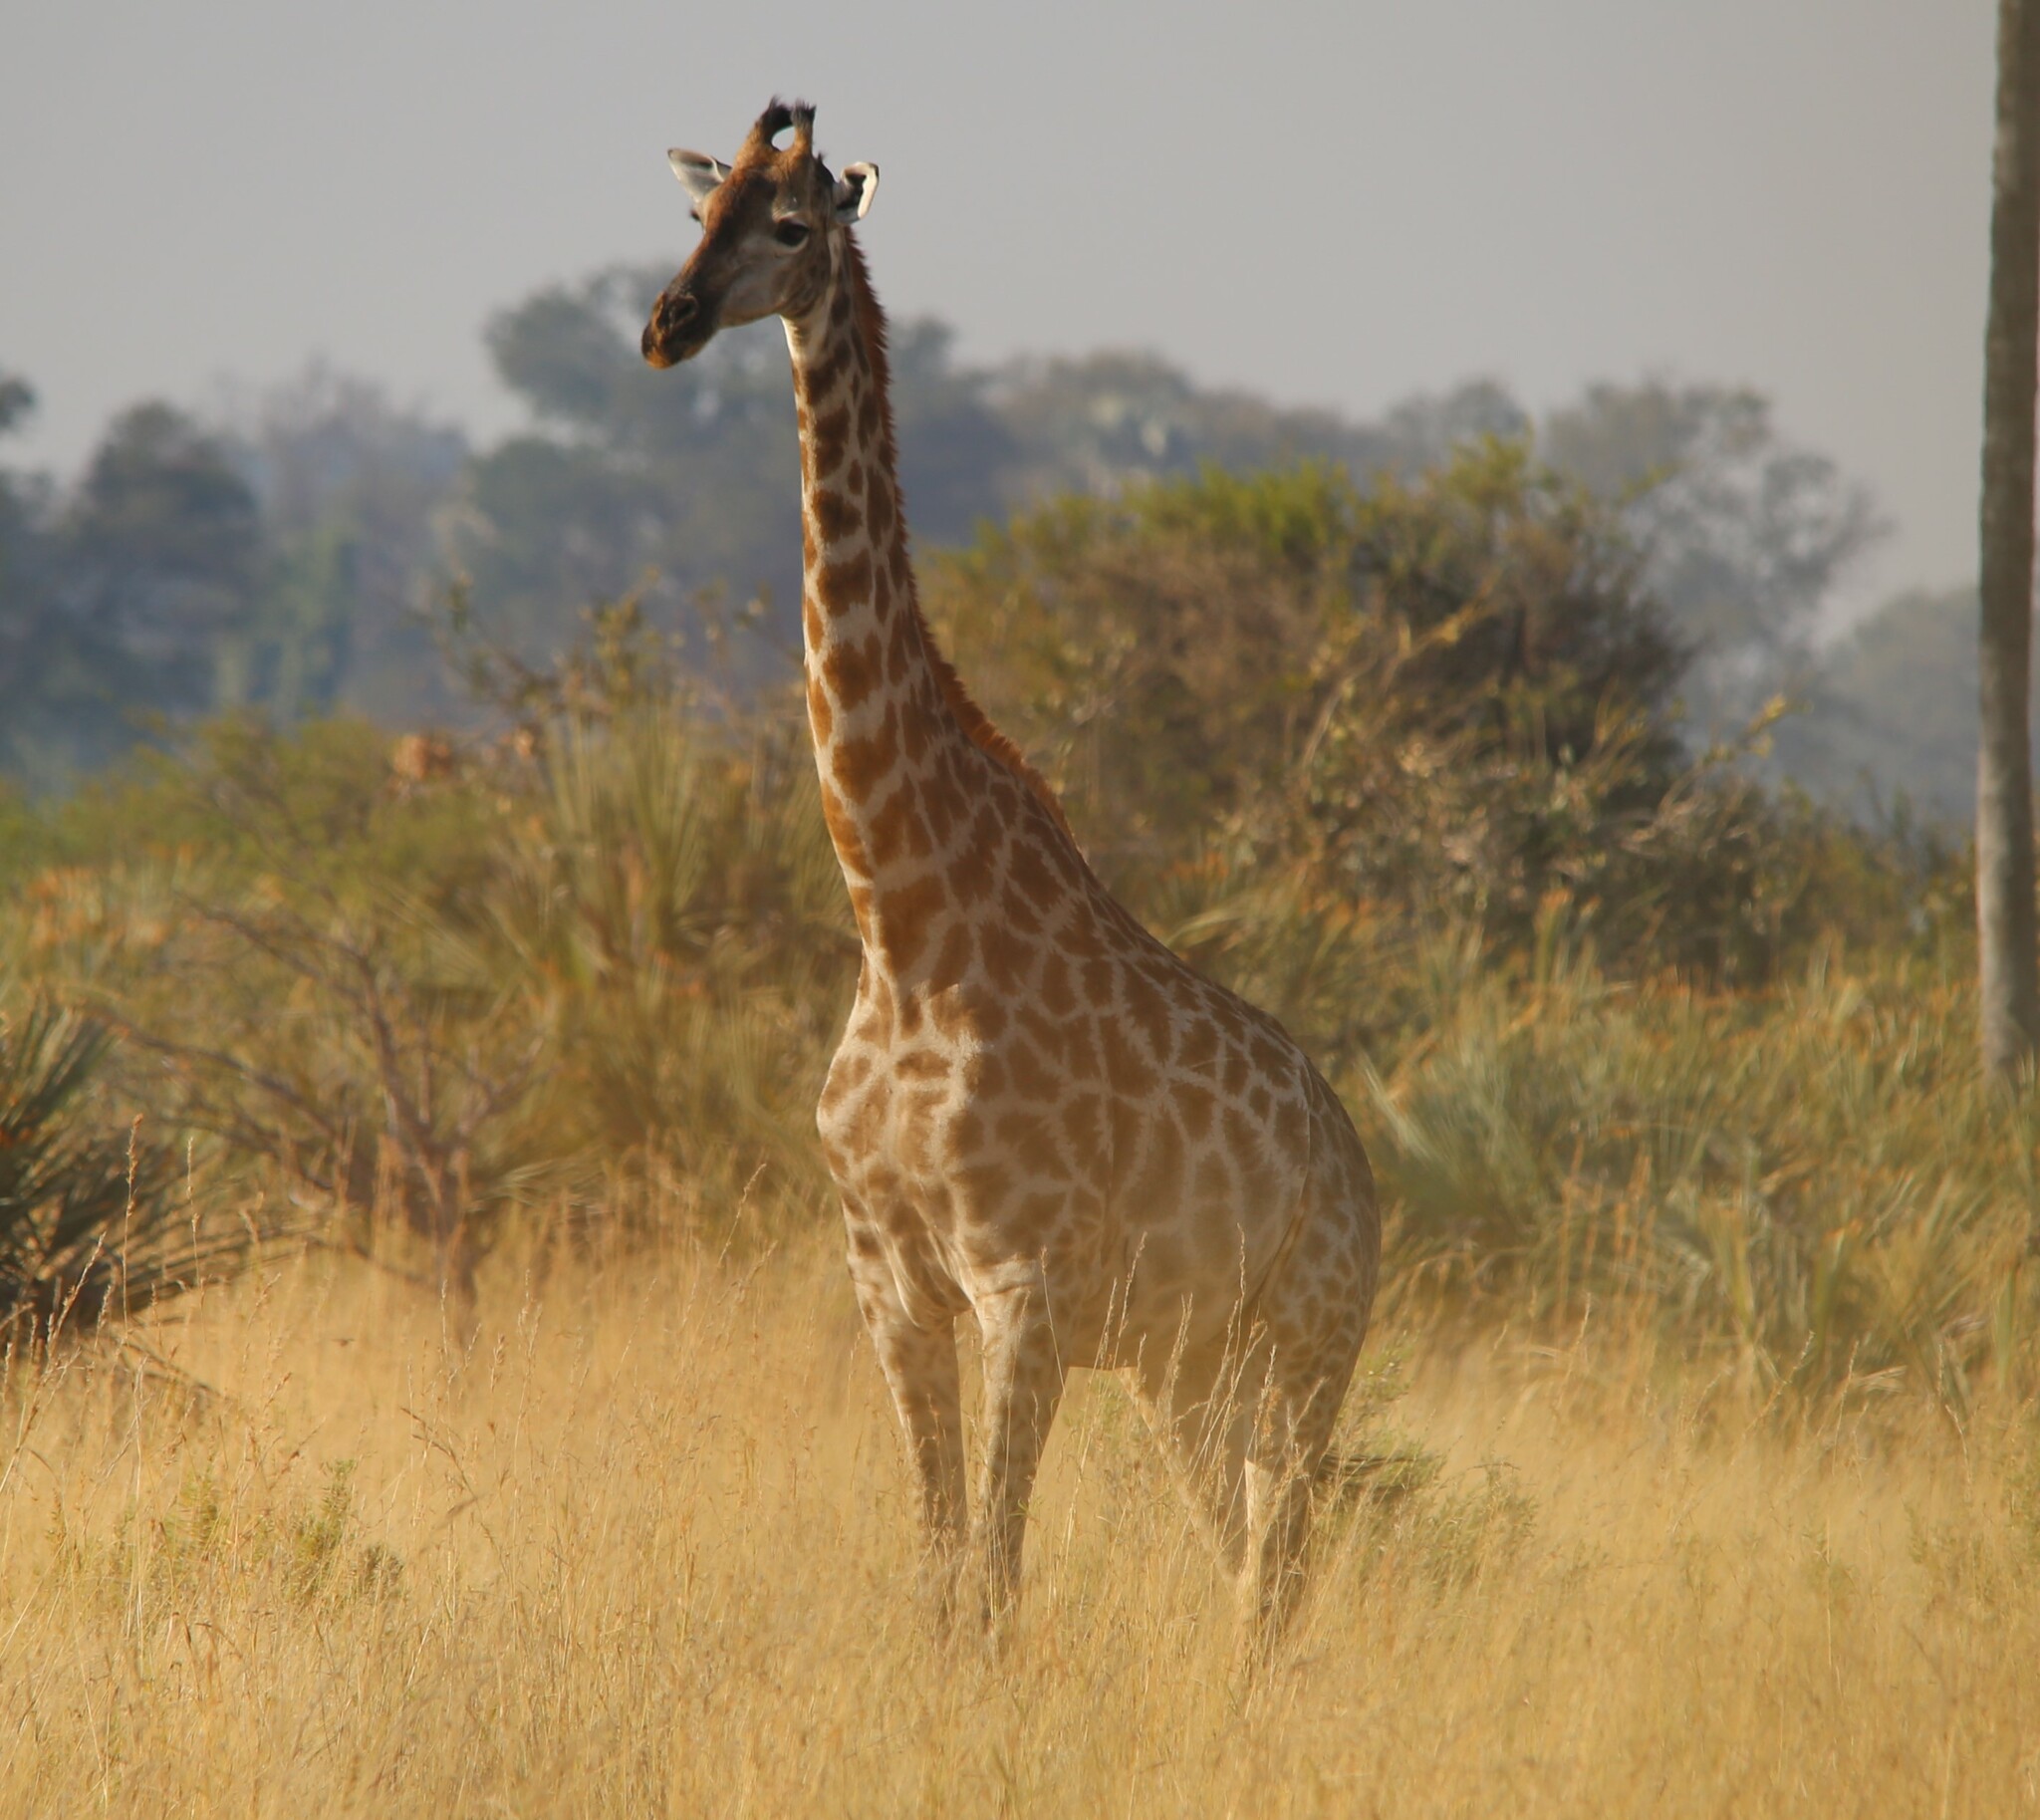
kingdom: Animalia
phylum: Chordata
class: Mammalia
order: Artiodactyla
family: Giraffidae
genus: Giraffa
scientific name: Giraffa giraffa
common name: Southern giraffe
